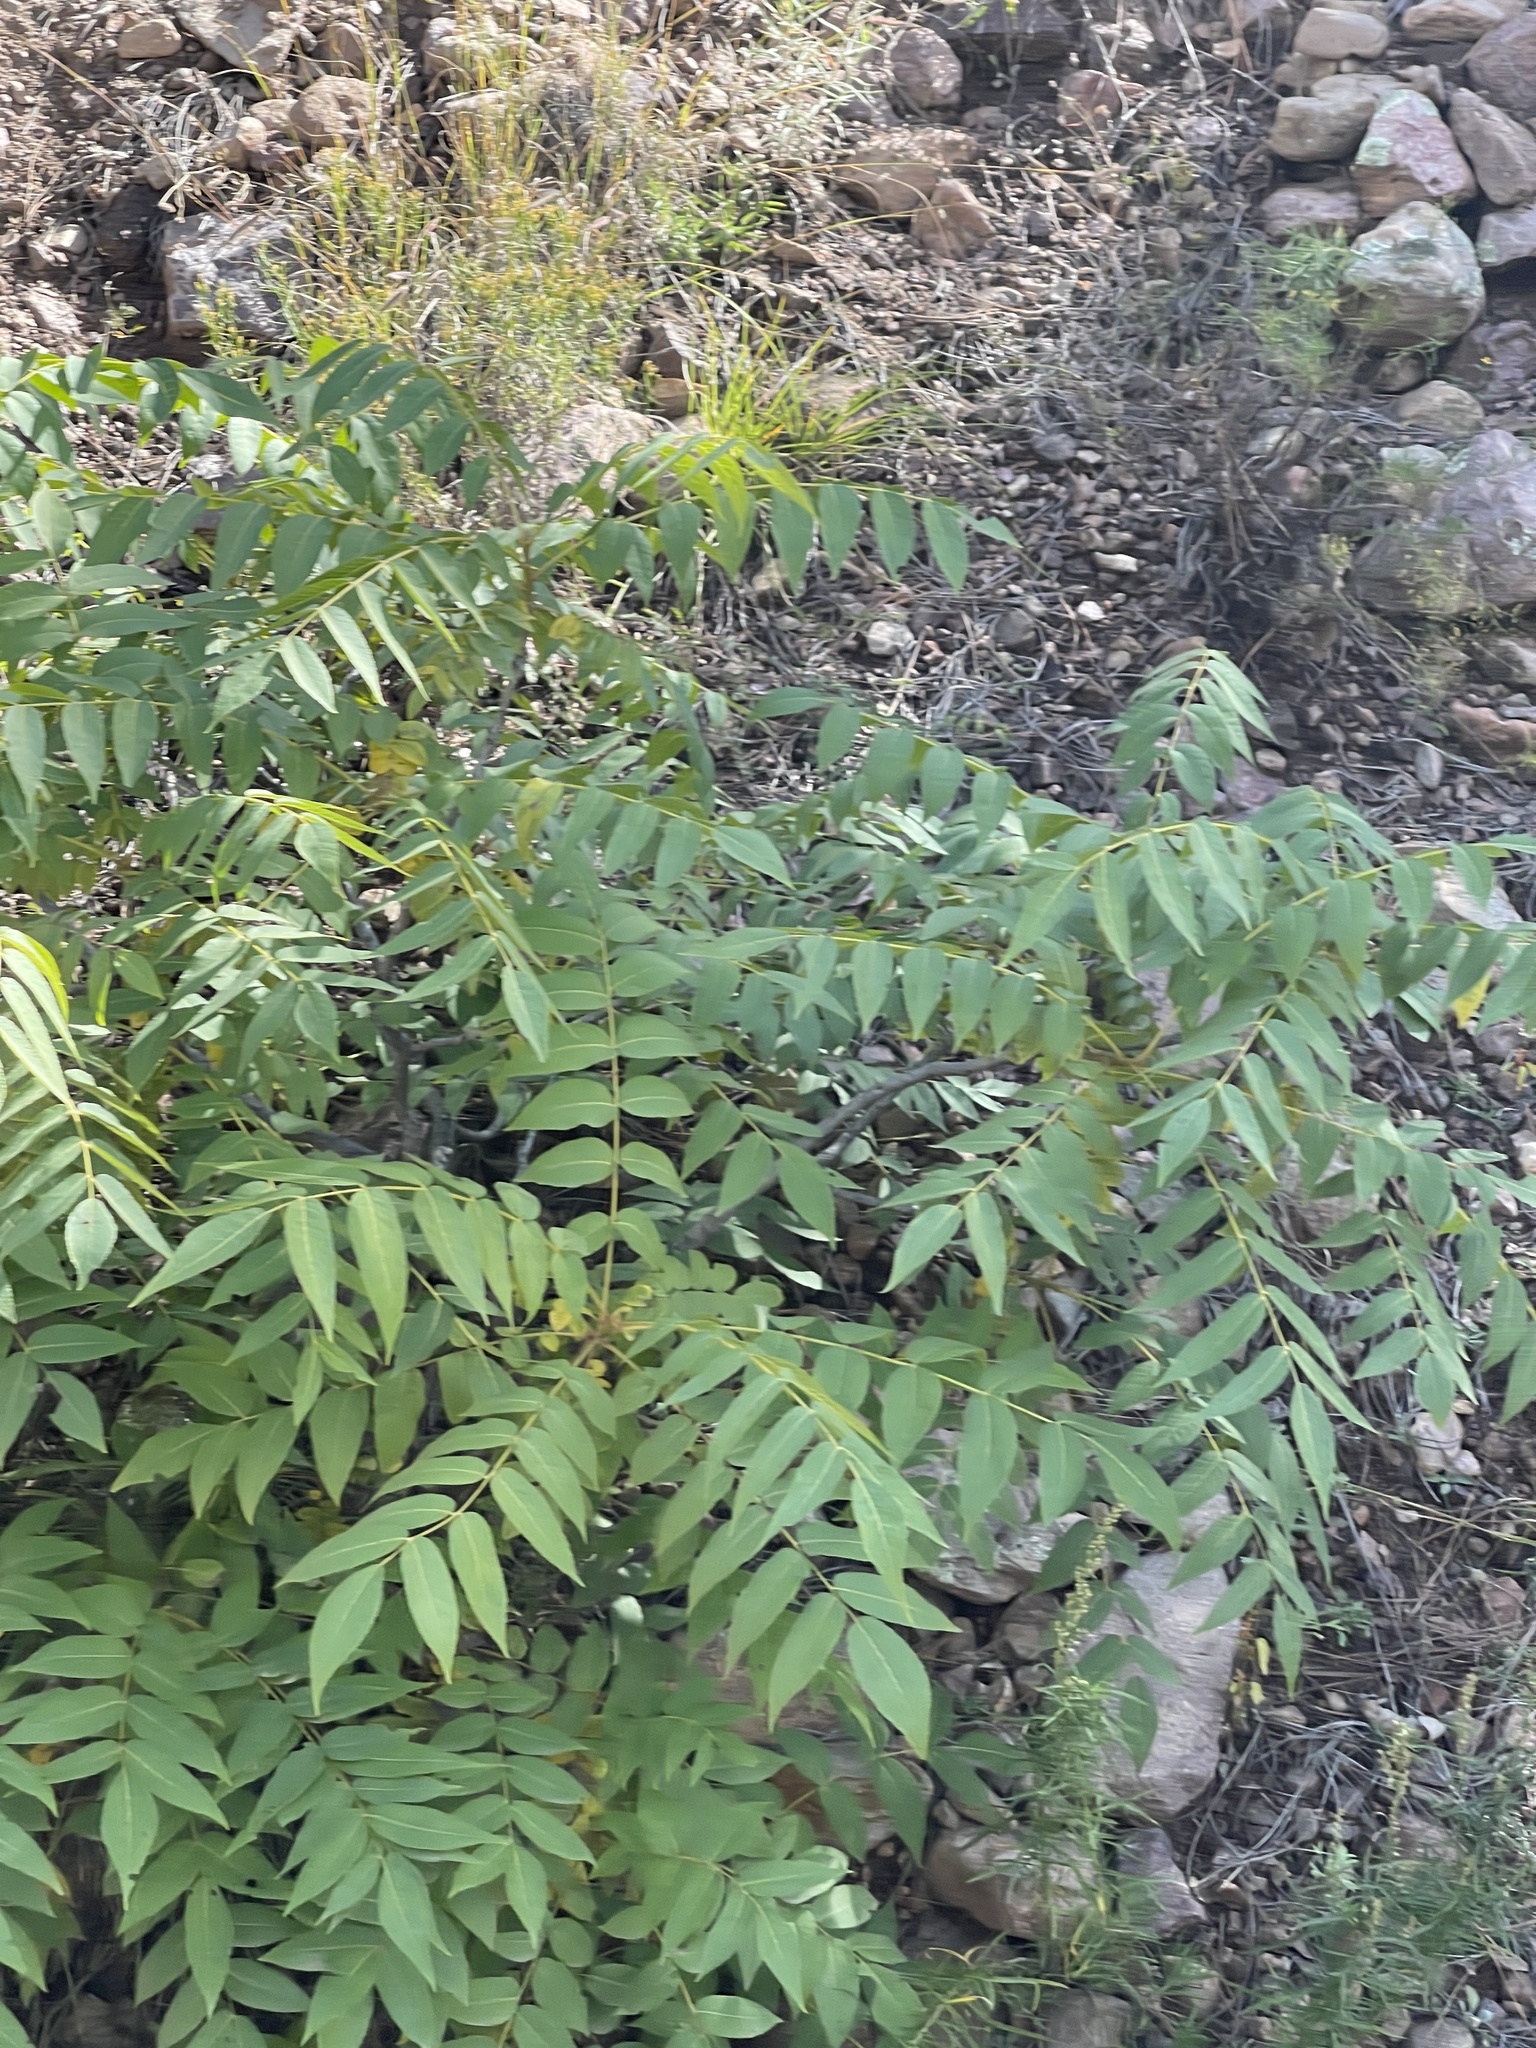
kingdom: Plantae
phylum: Tracheophyta
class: Magnoliopsida
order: Fagales
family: Juglandaceae
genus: Juglans
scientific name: Juglans major
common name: Arizona walnut
